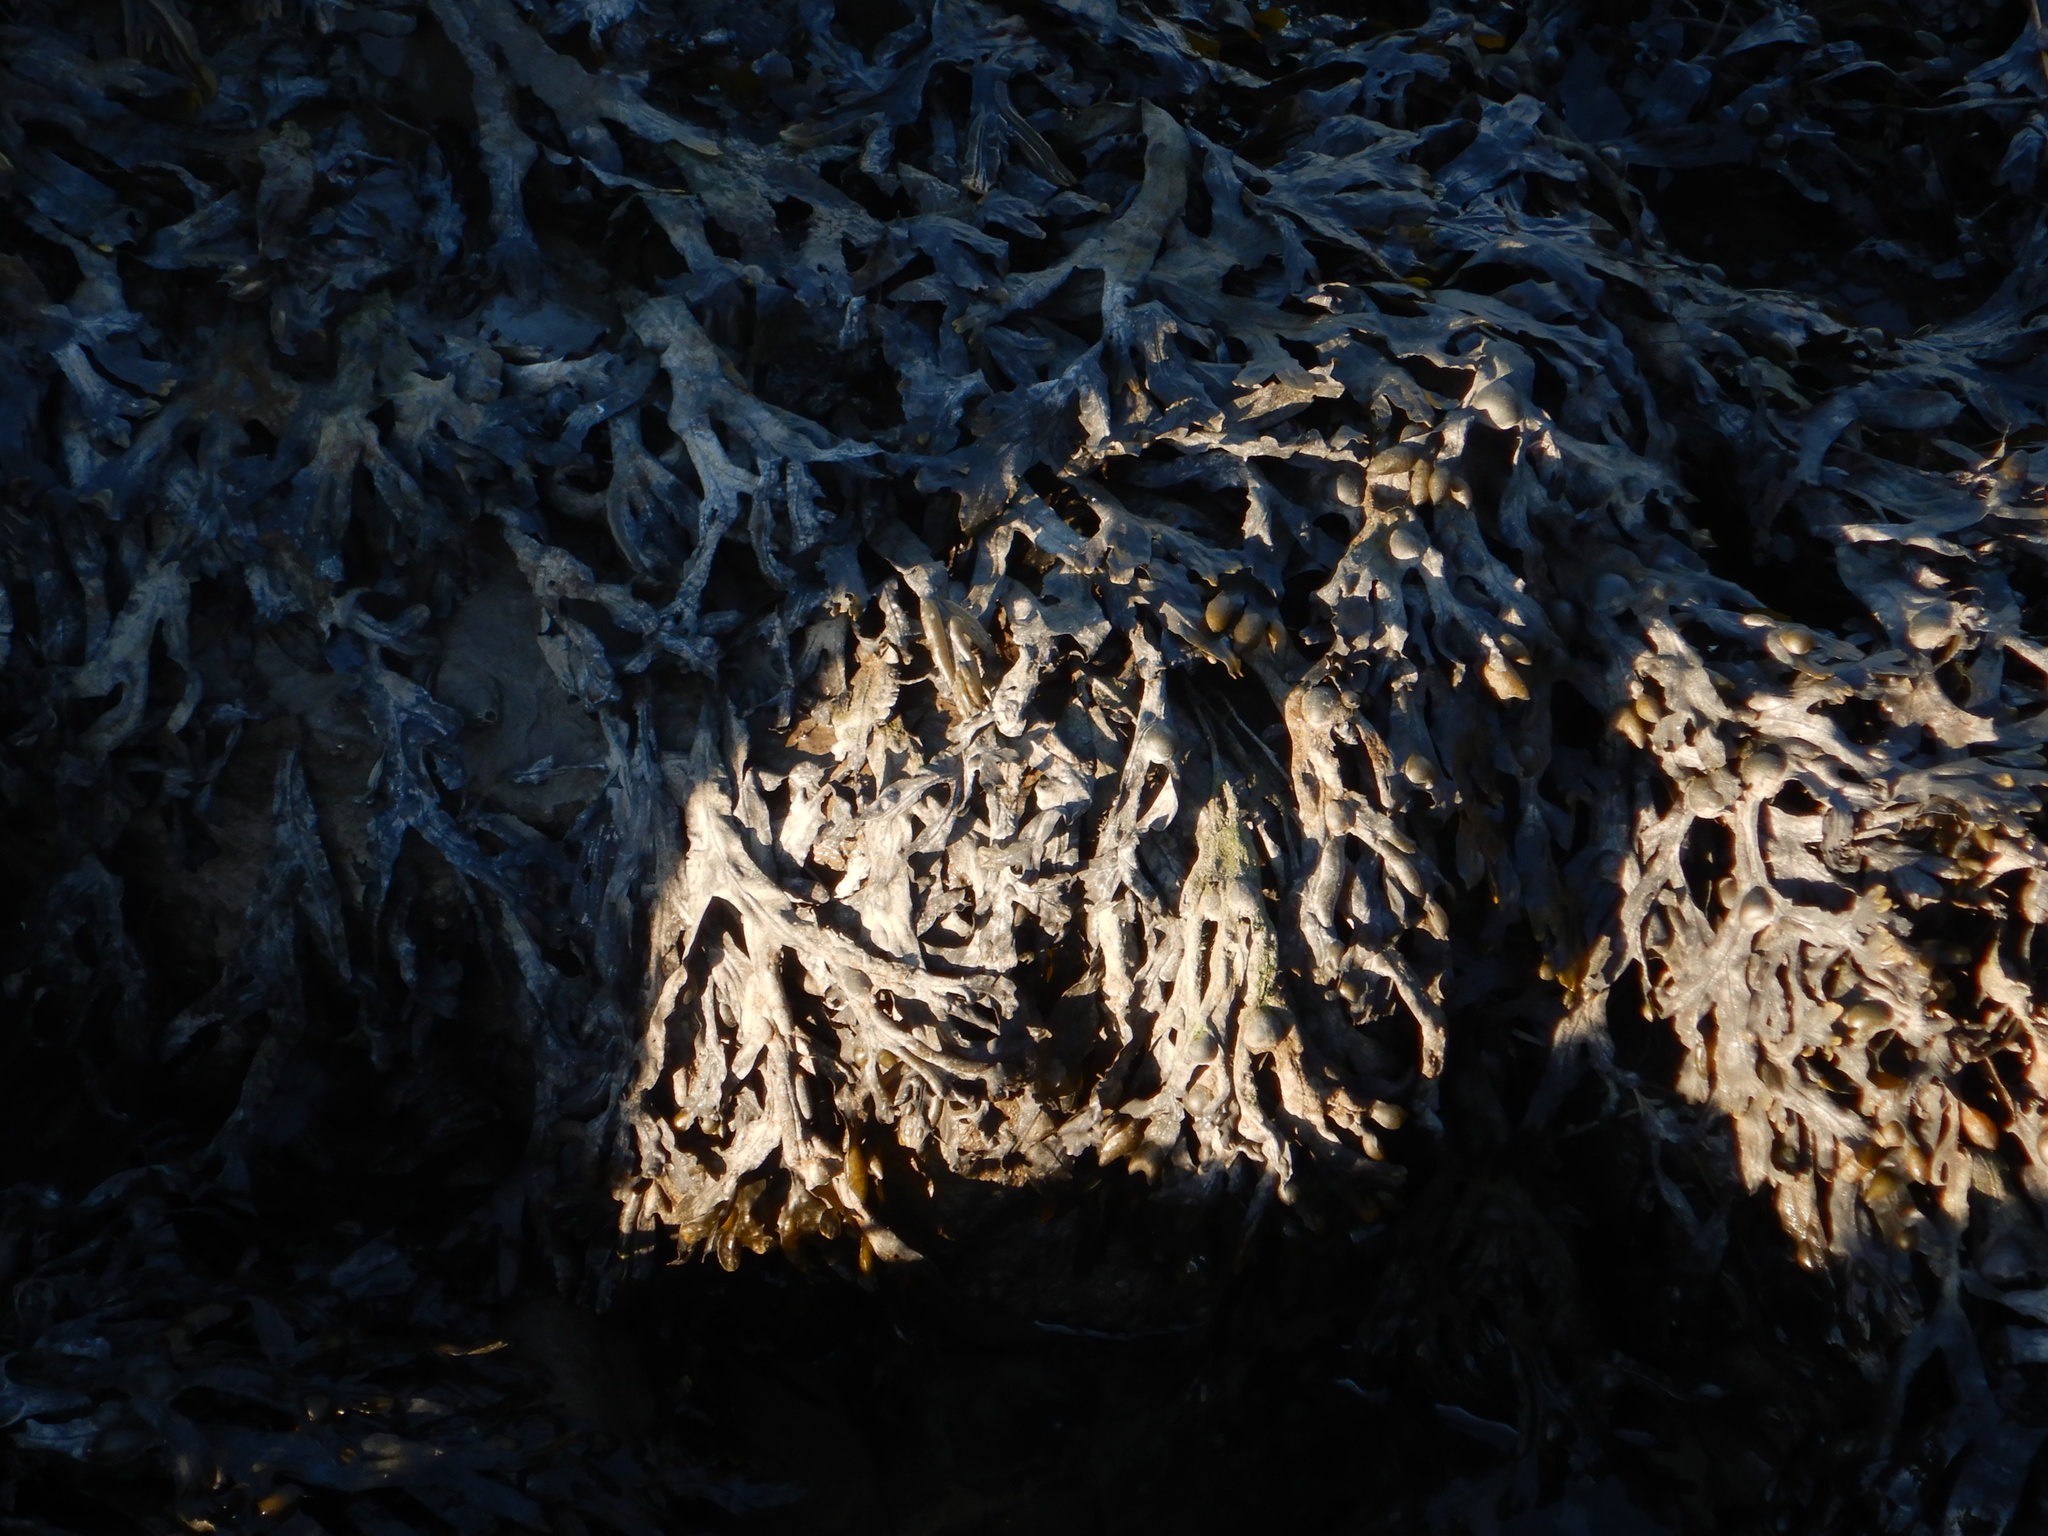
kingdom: Chromista
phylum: Ochrophyta
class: Phaeophyceae
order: Fucales
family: Fucaceae
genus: Fucus
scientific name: Fucus vesiculosus
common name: Bladder wrack
